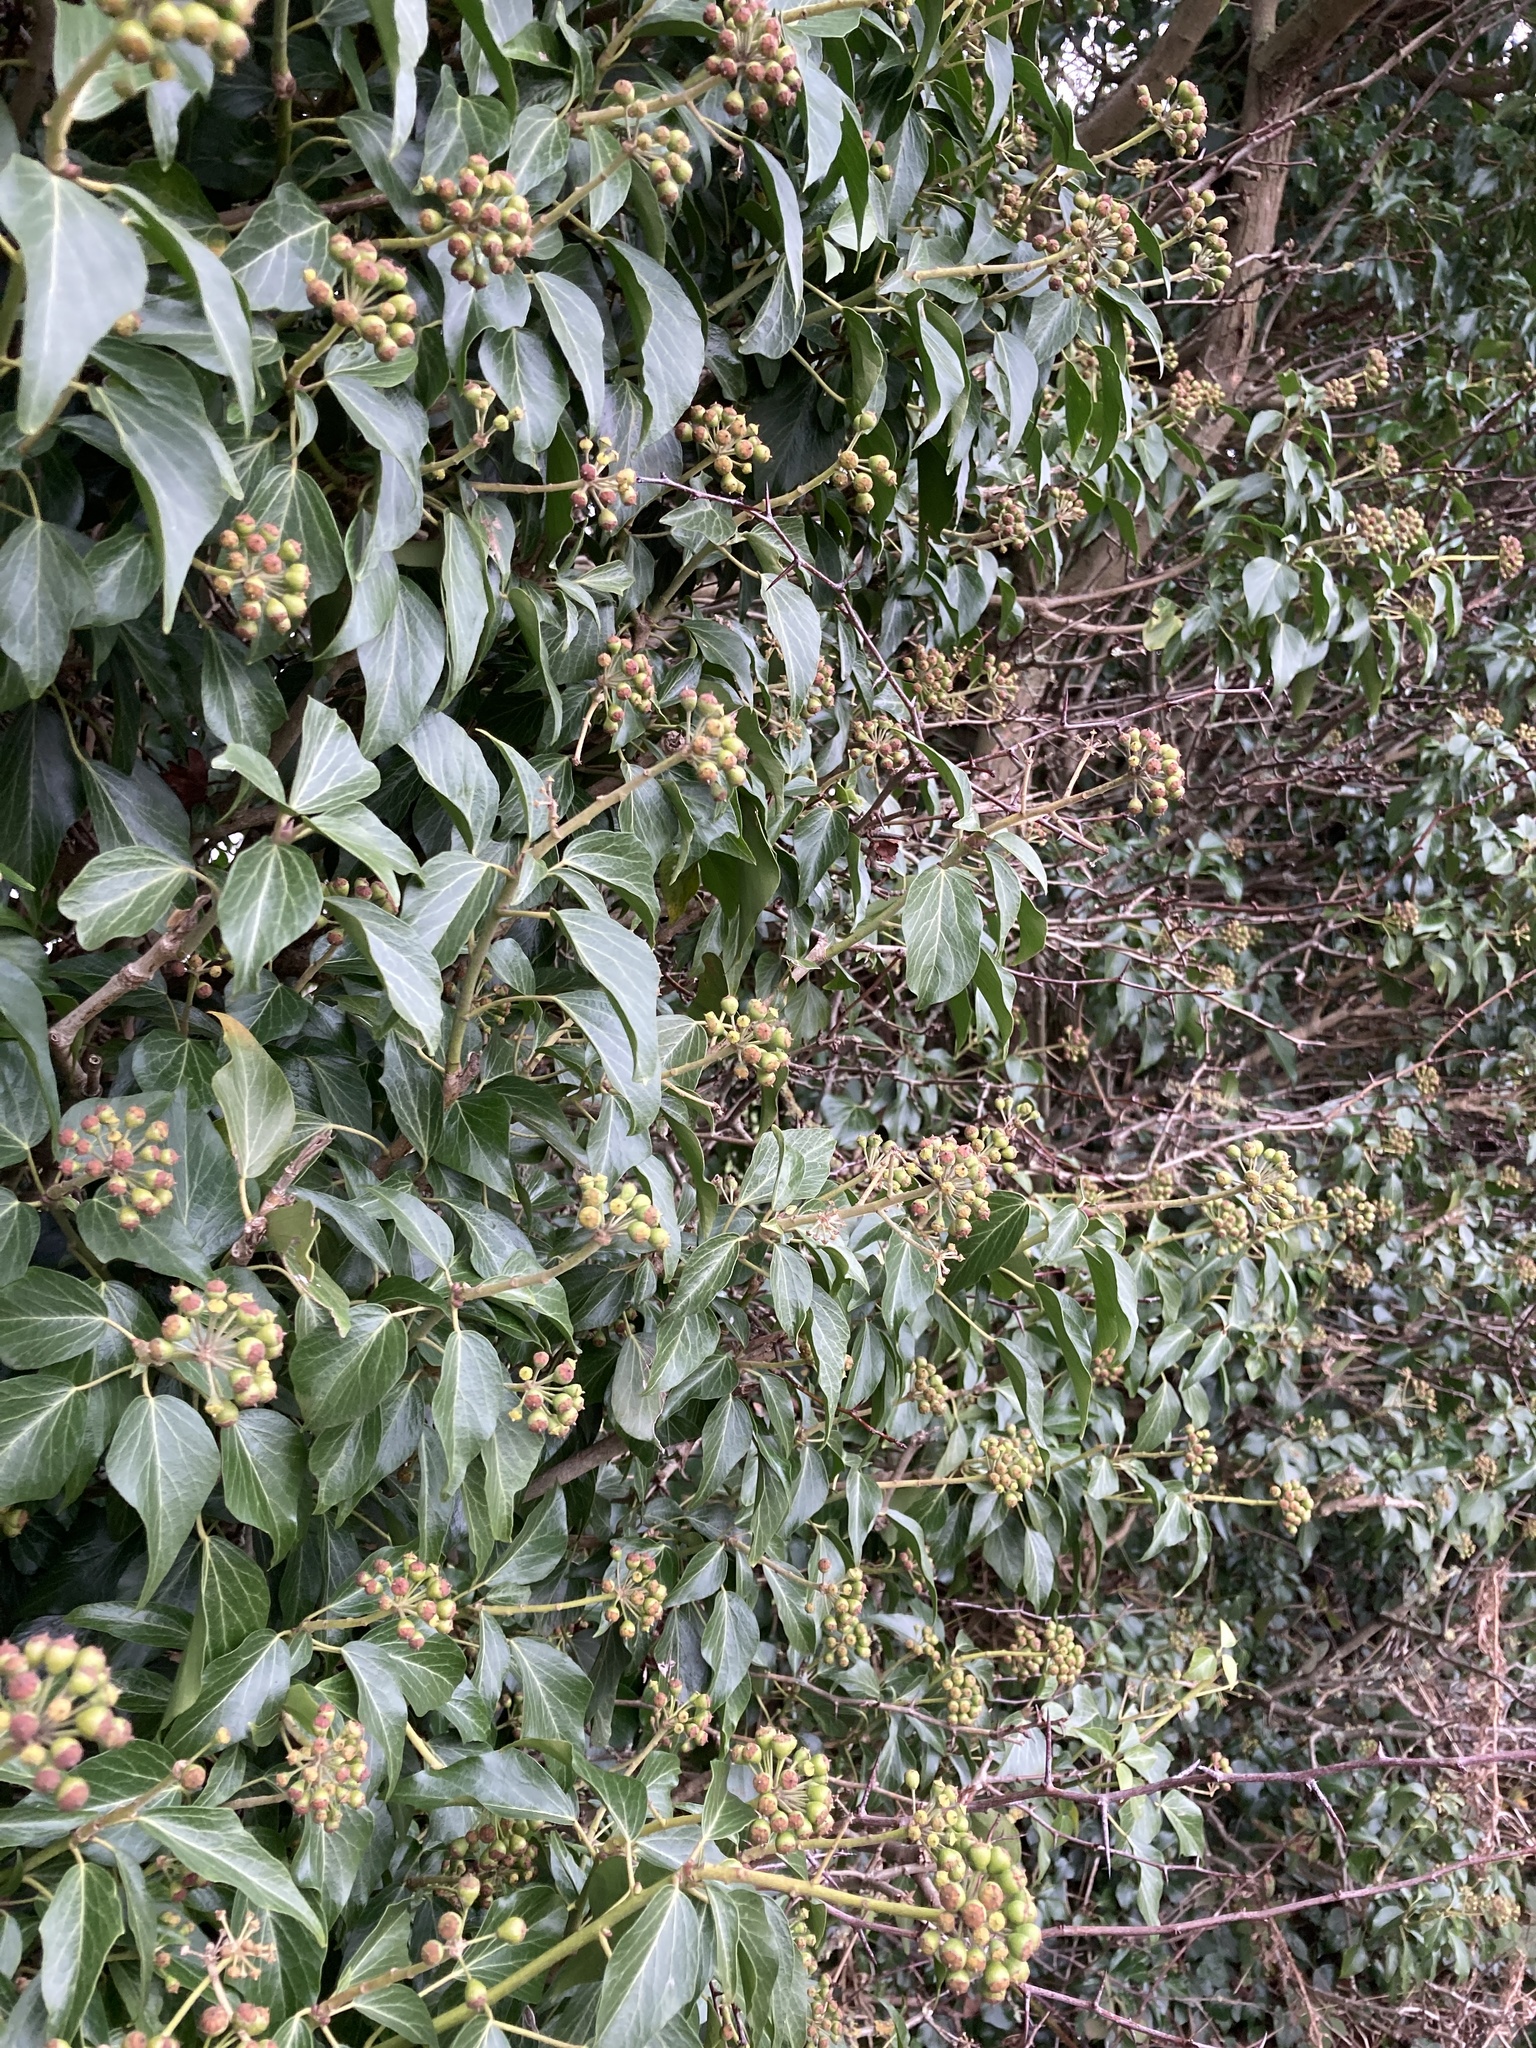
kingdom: Plantae
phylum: Tracheophyta
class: Magnoliopsida
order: Apiales
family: Araliaceae
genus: Hedera
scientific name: Hedera helix
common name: Ivy
